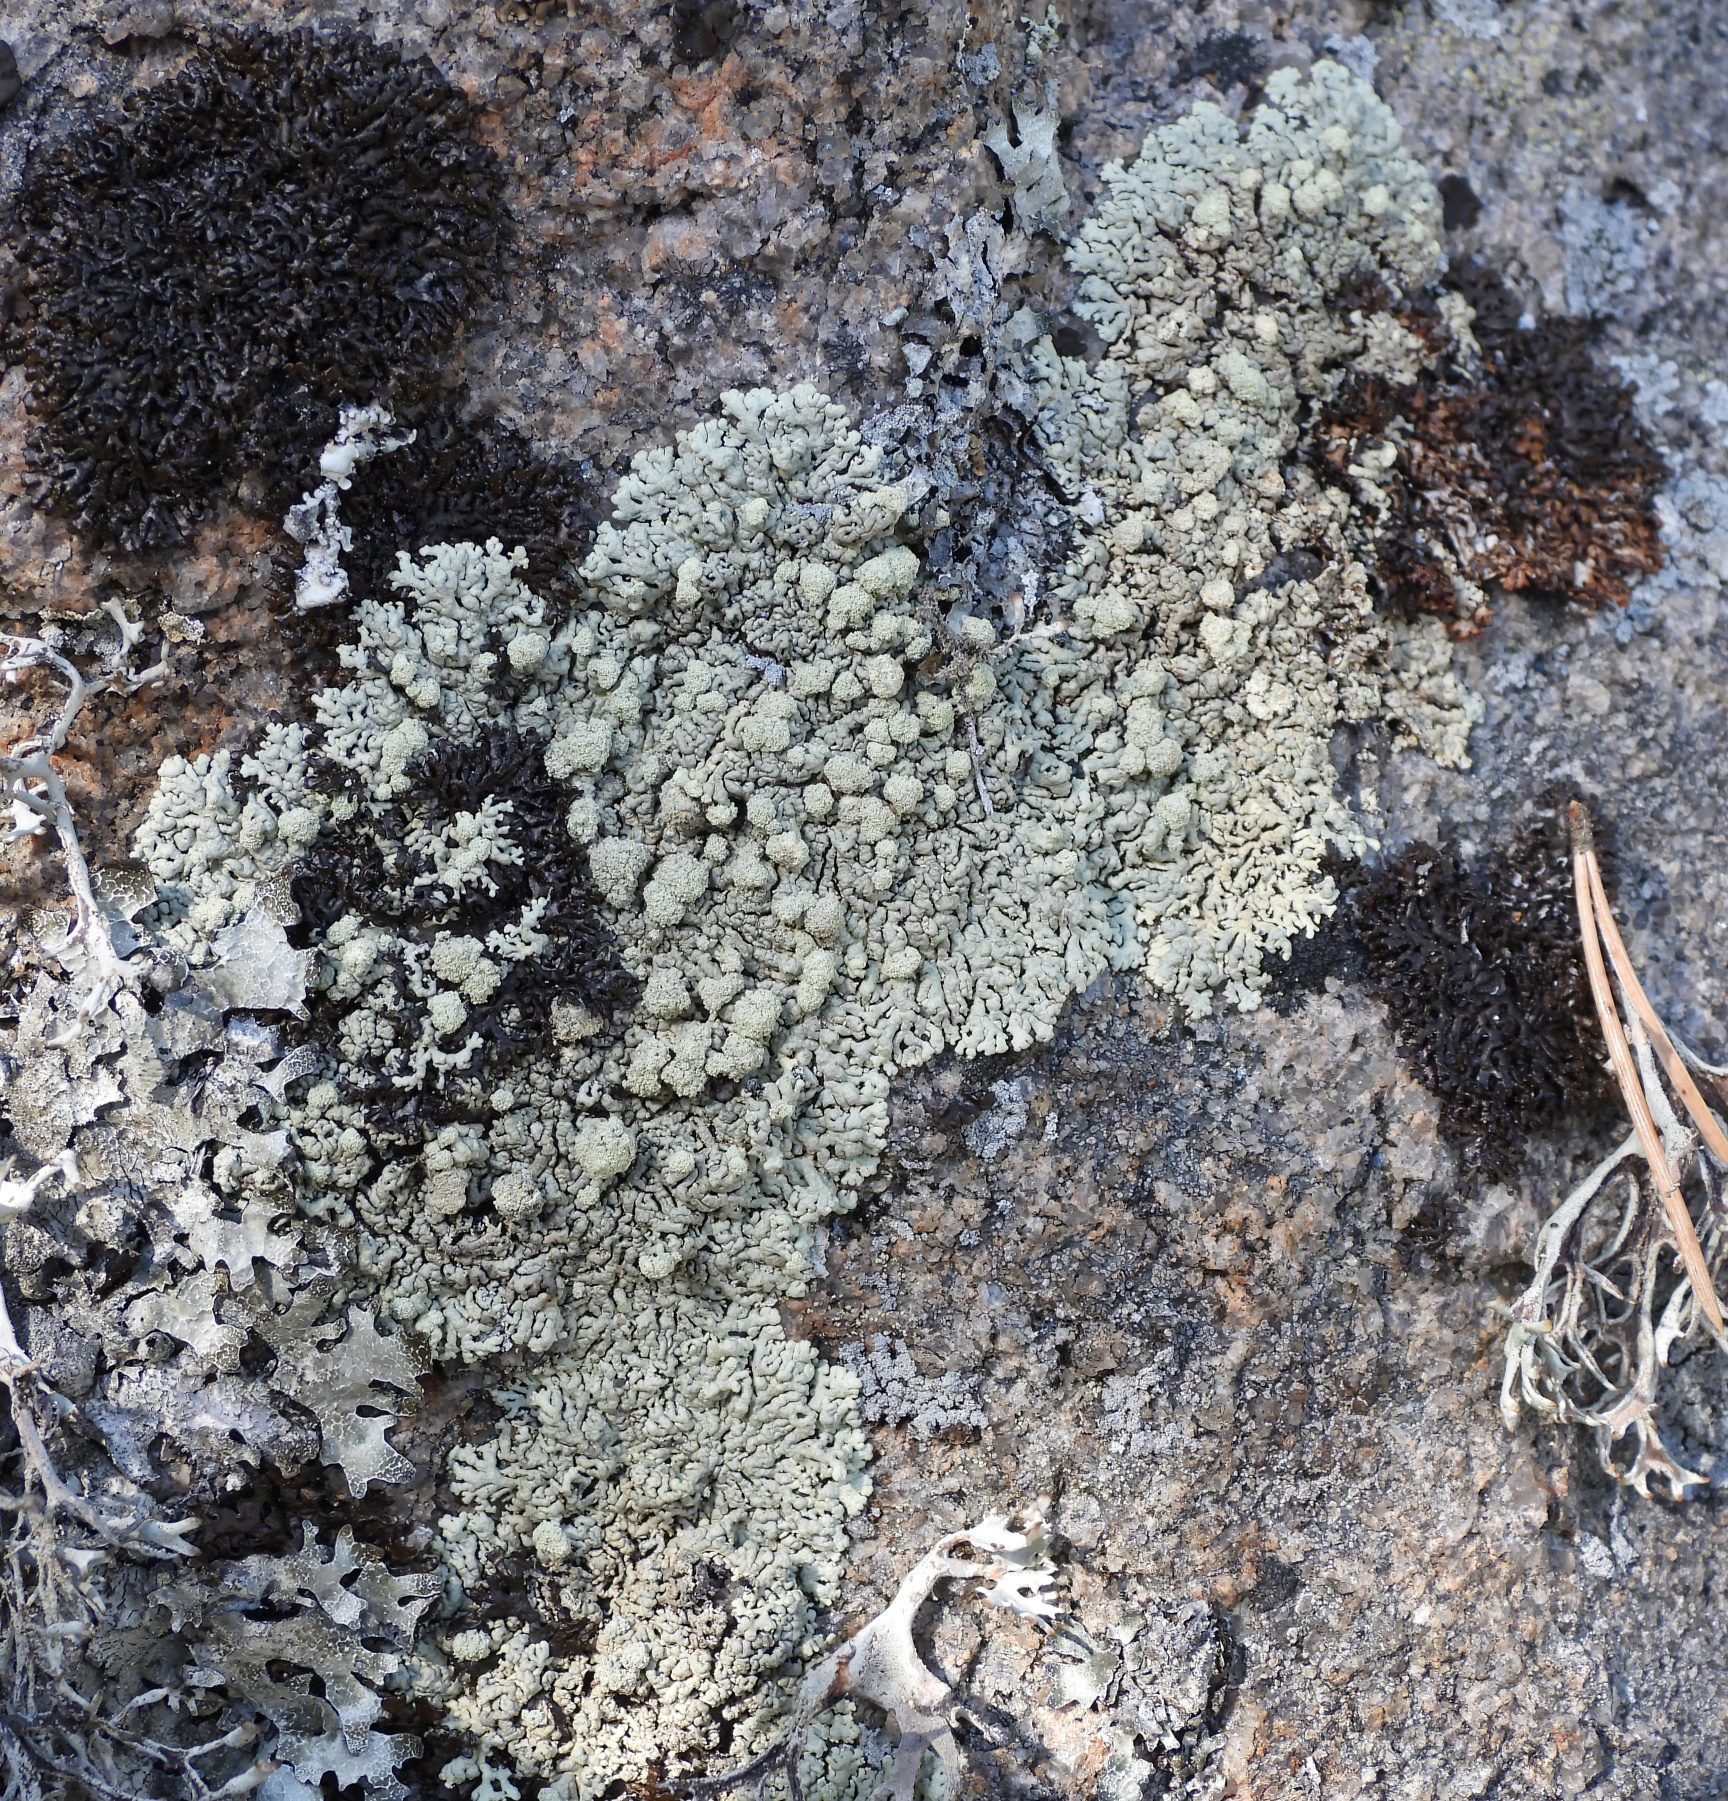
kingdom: Fungi
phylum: Ascomycota
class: Lecanoromycetes
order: Lecanorales
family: Parmeliaceae
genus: Arctoparmelia
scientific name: Arctoparmelia incurva
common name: Bent ring lichen
